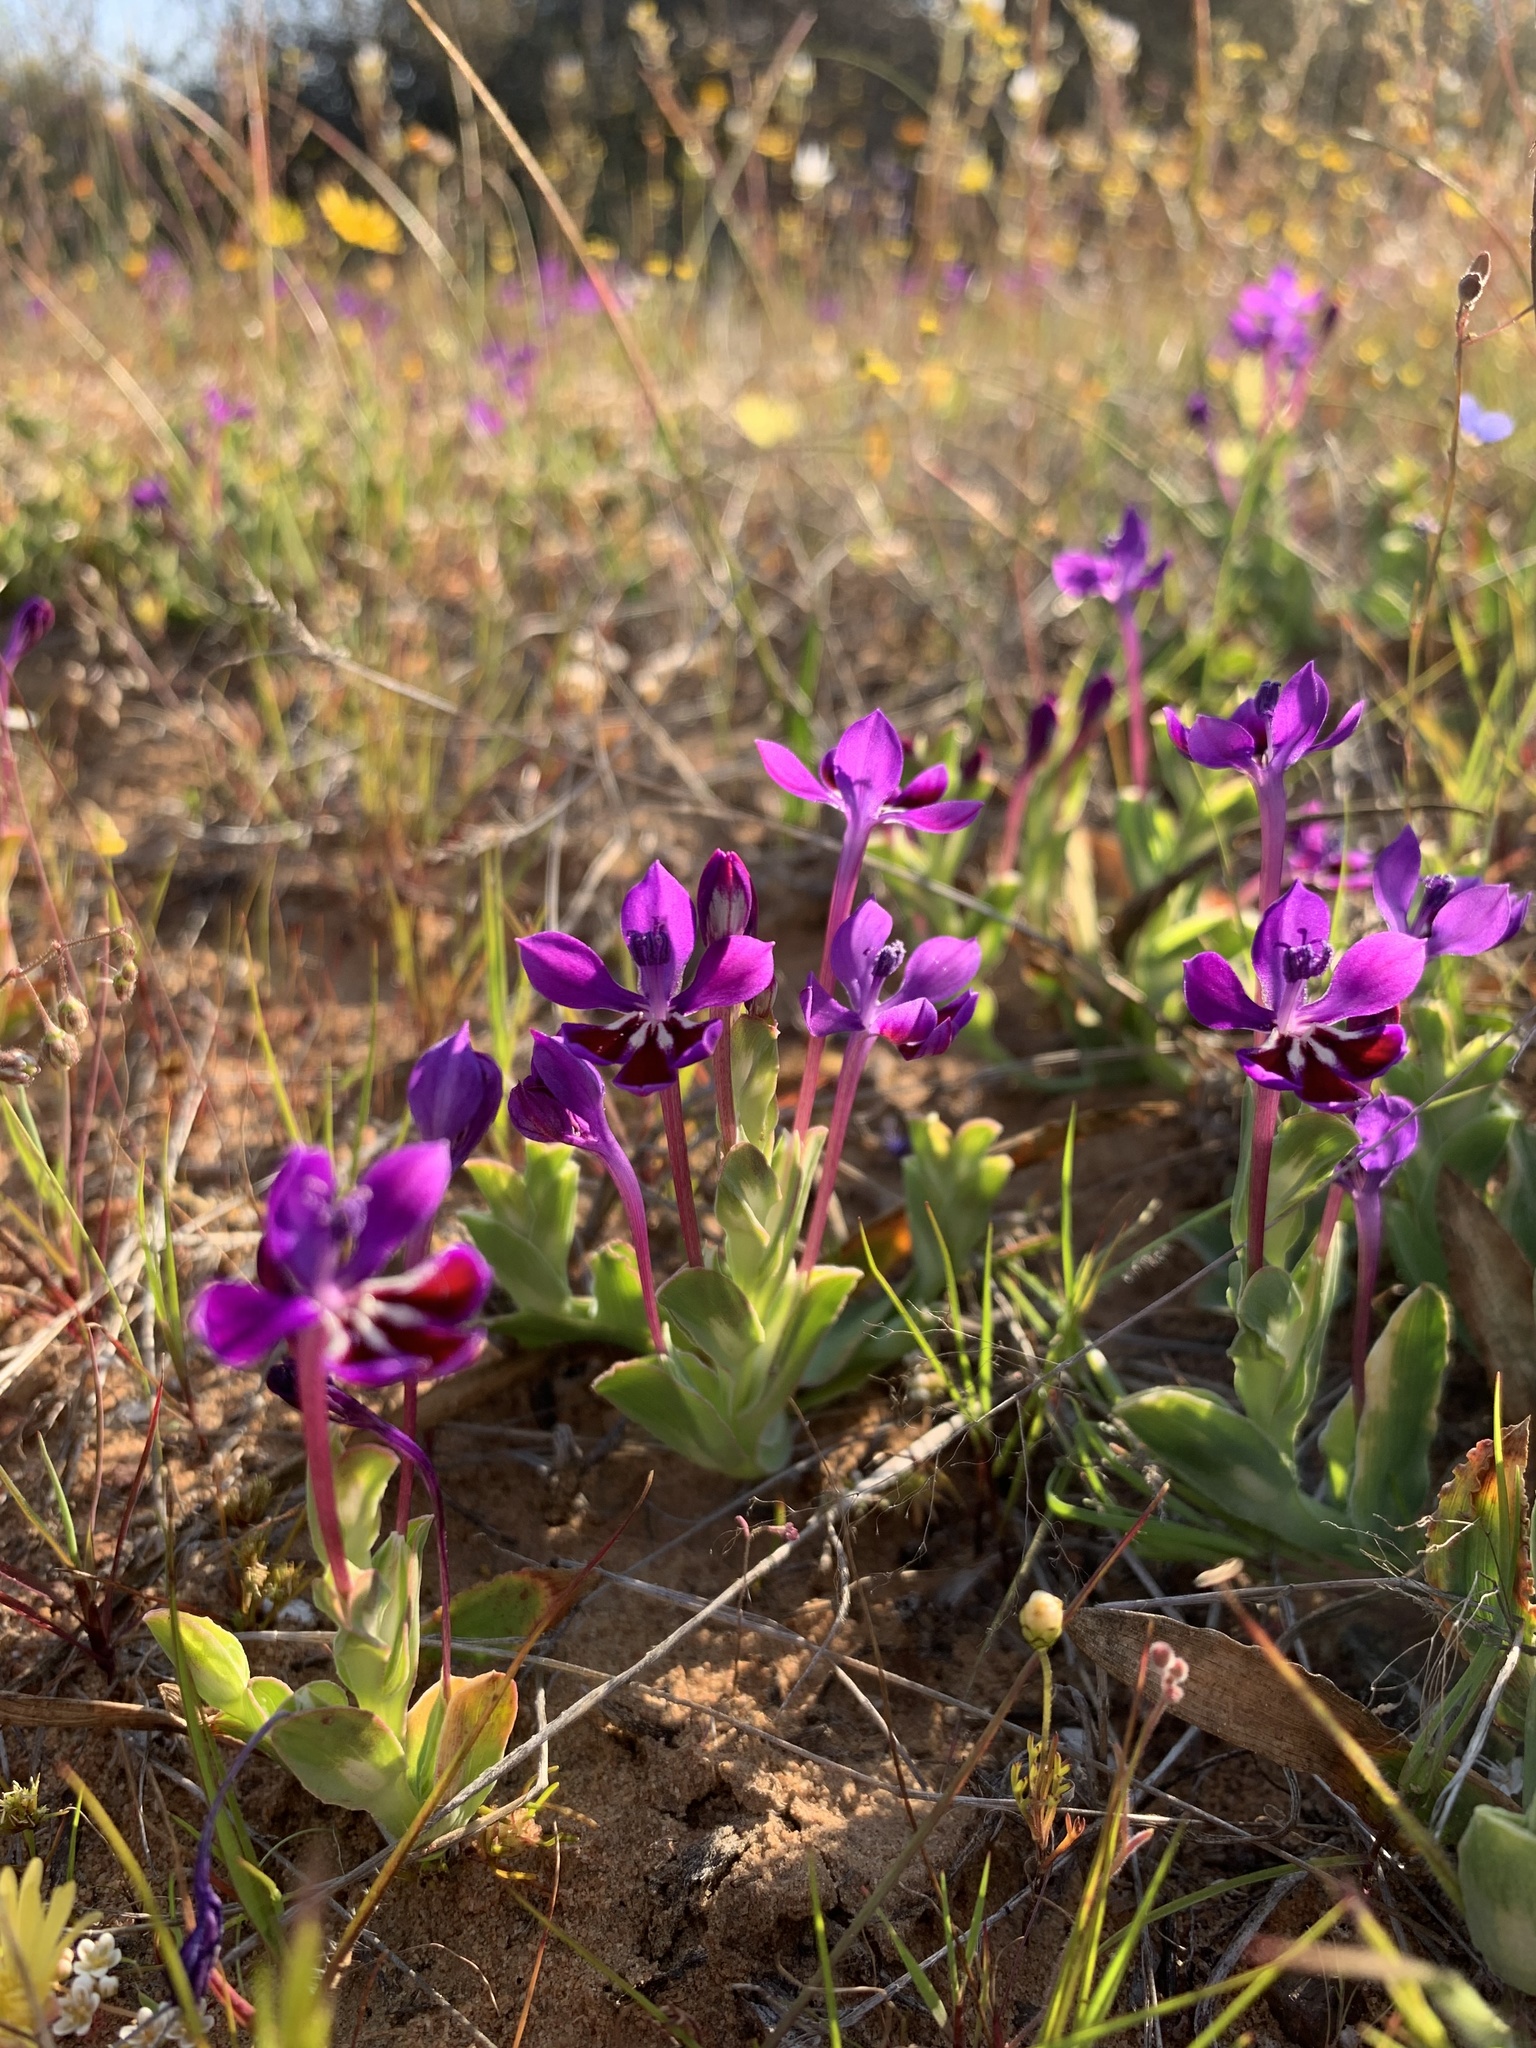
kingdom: Plantae
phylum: Tracheophyta
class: Liliopsida
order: Asparagales
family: Iridaceae
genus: Lapeirousia
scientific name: Lapeirousia jacquinii
